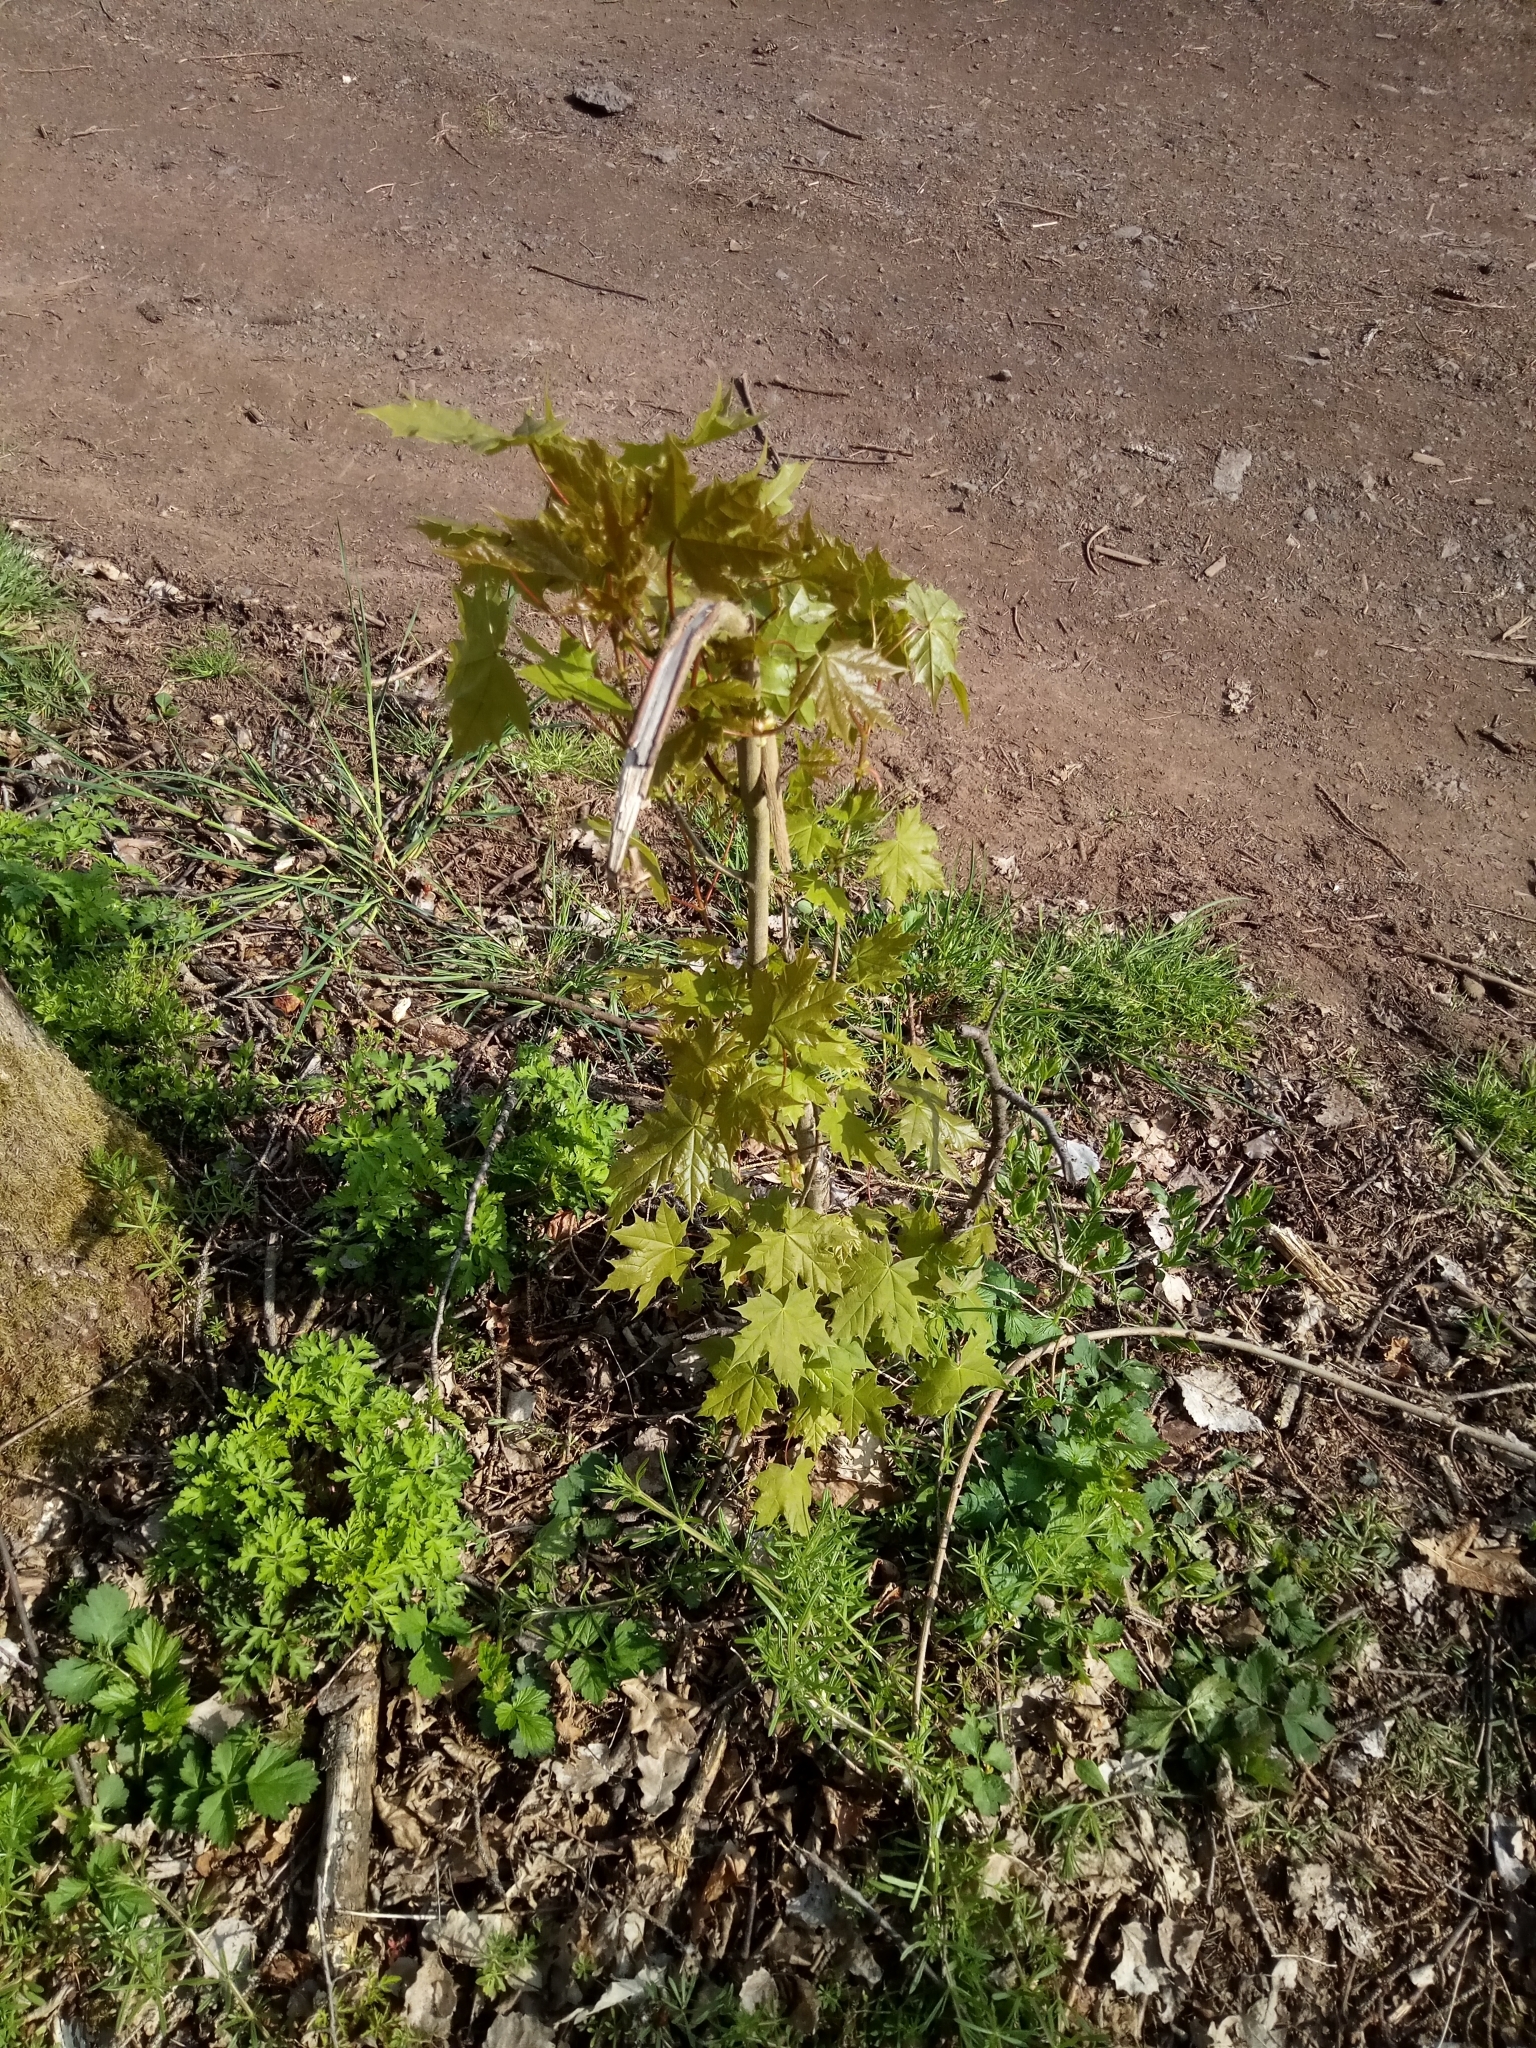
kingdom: Plantae
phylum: Tracheophyta
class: Magnoliopsida
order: Sapindales
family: Sapindaceae
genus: Acer
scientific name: Acer platanoides
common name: Norway maple
